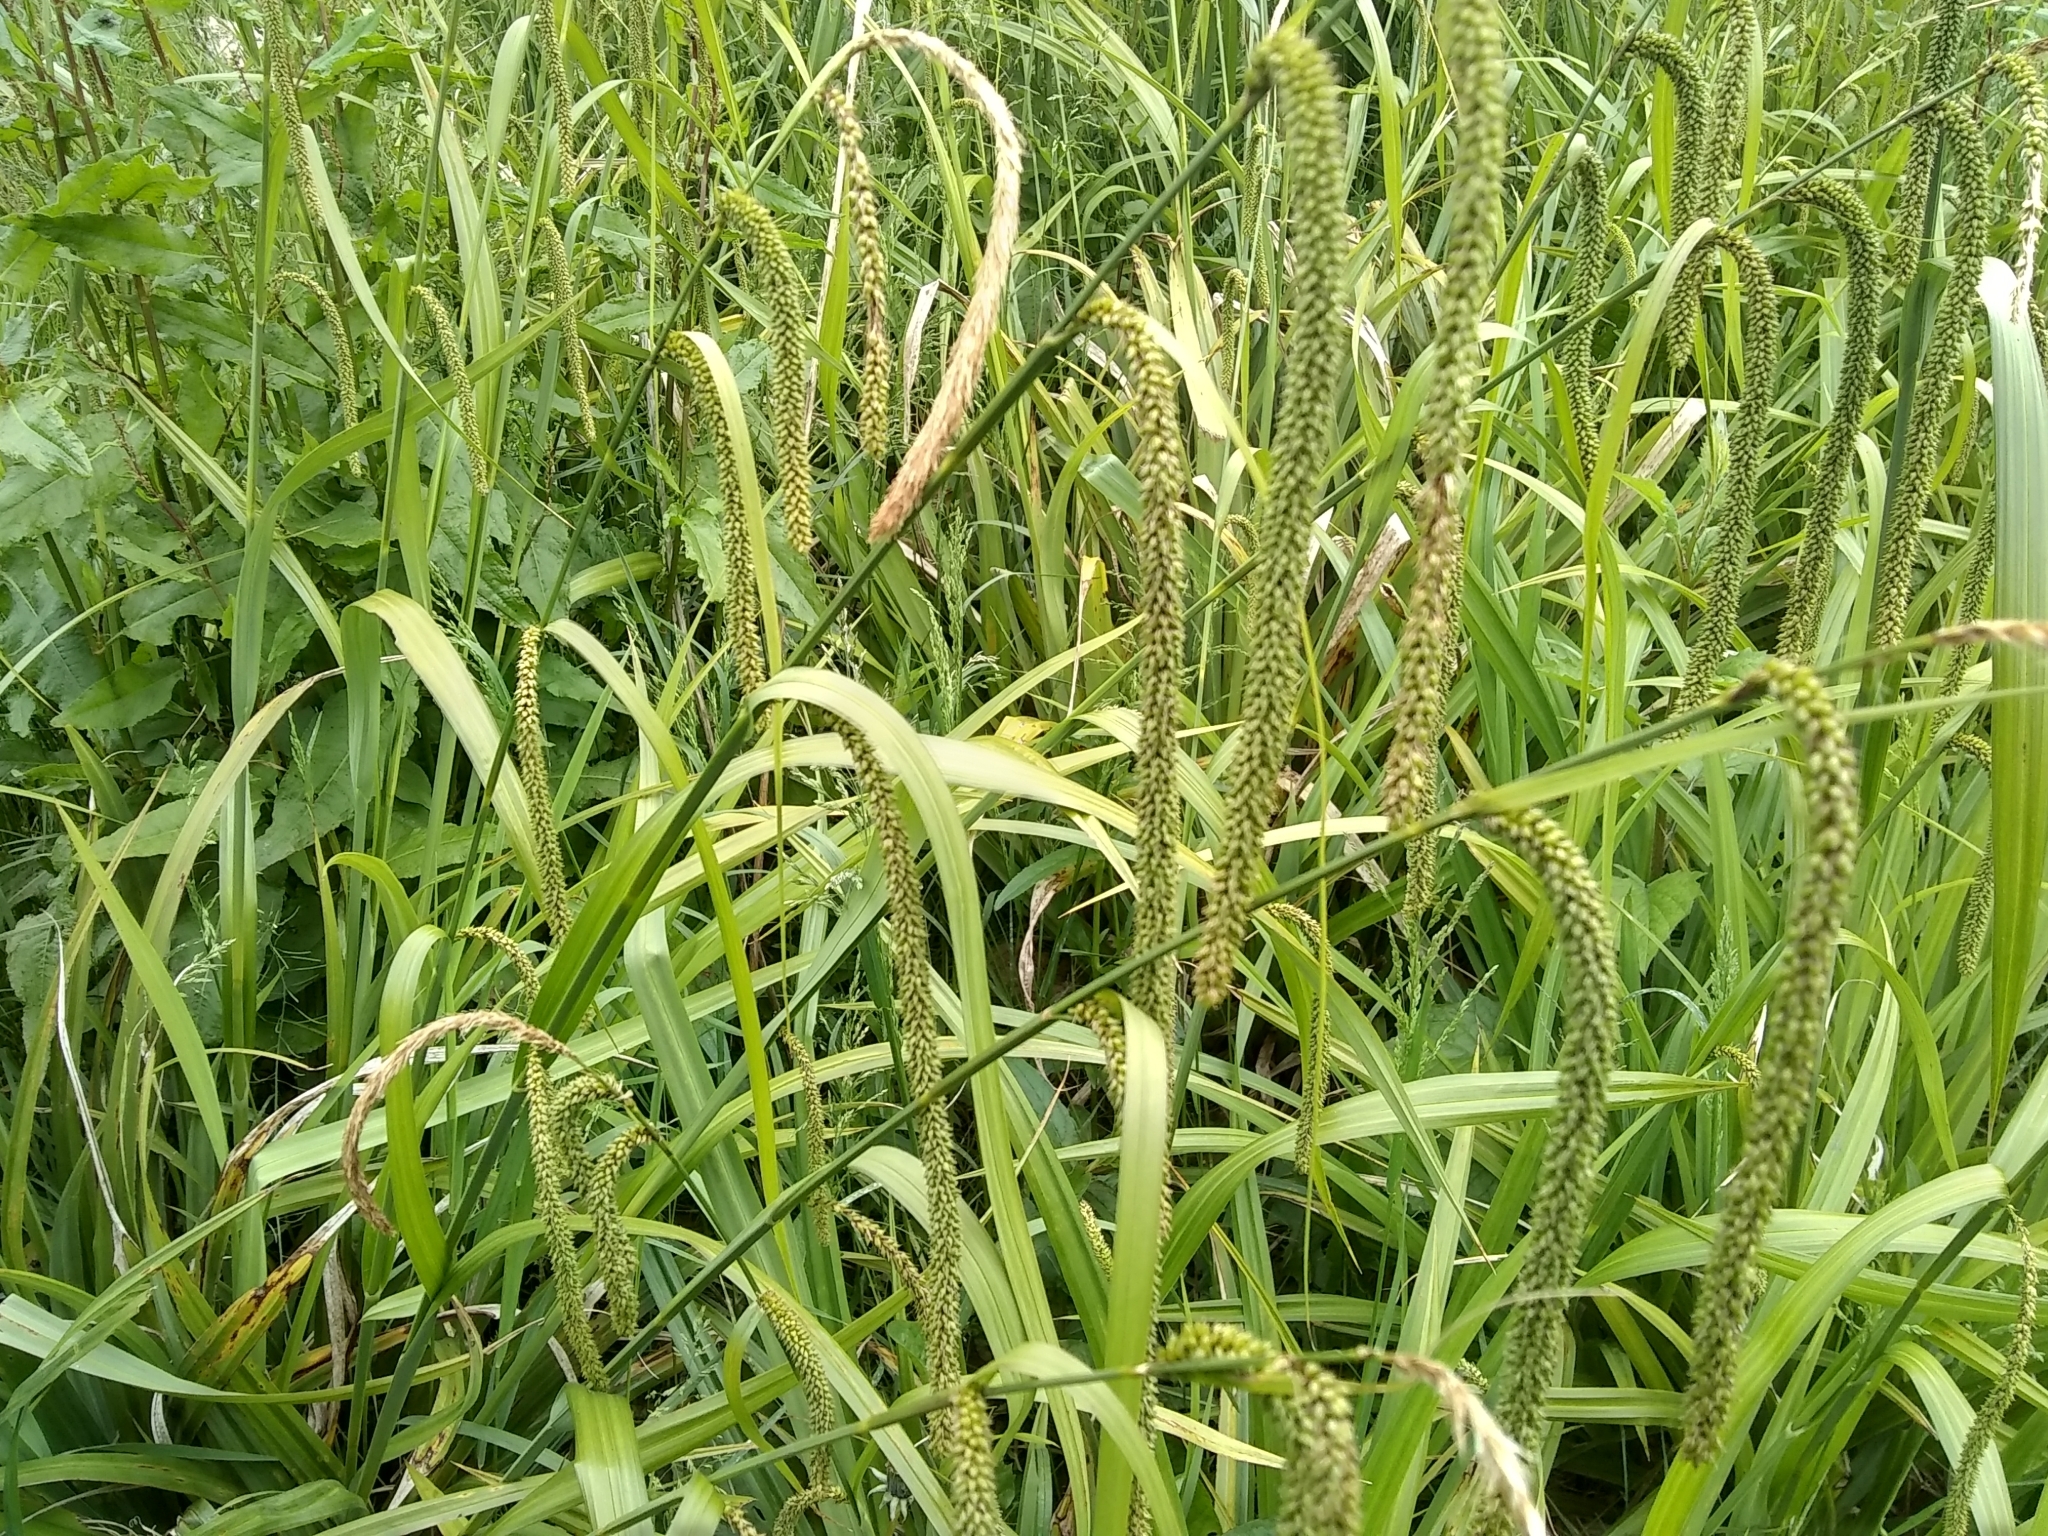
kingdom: Plantae
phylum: Tracheophyta
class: Liliopsida
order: Poales
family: Cyperaceae
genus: Carex
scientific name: Carex pendula
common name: Pendulous sedge
